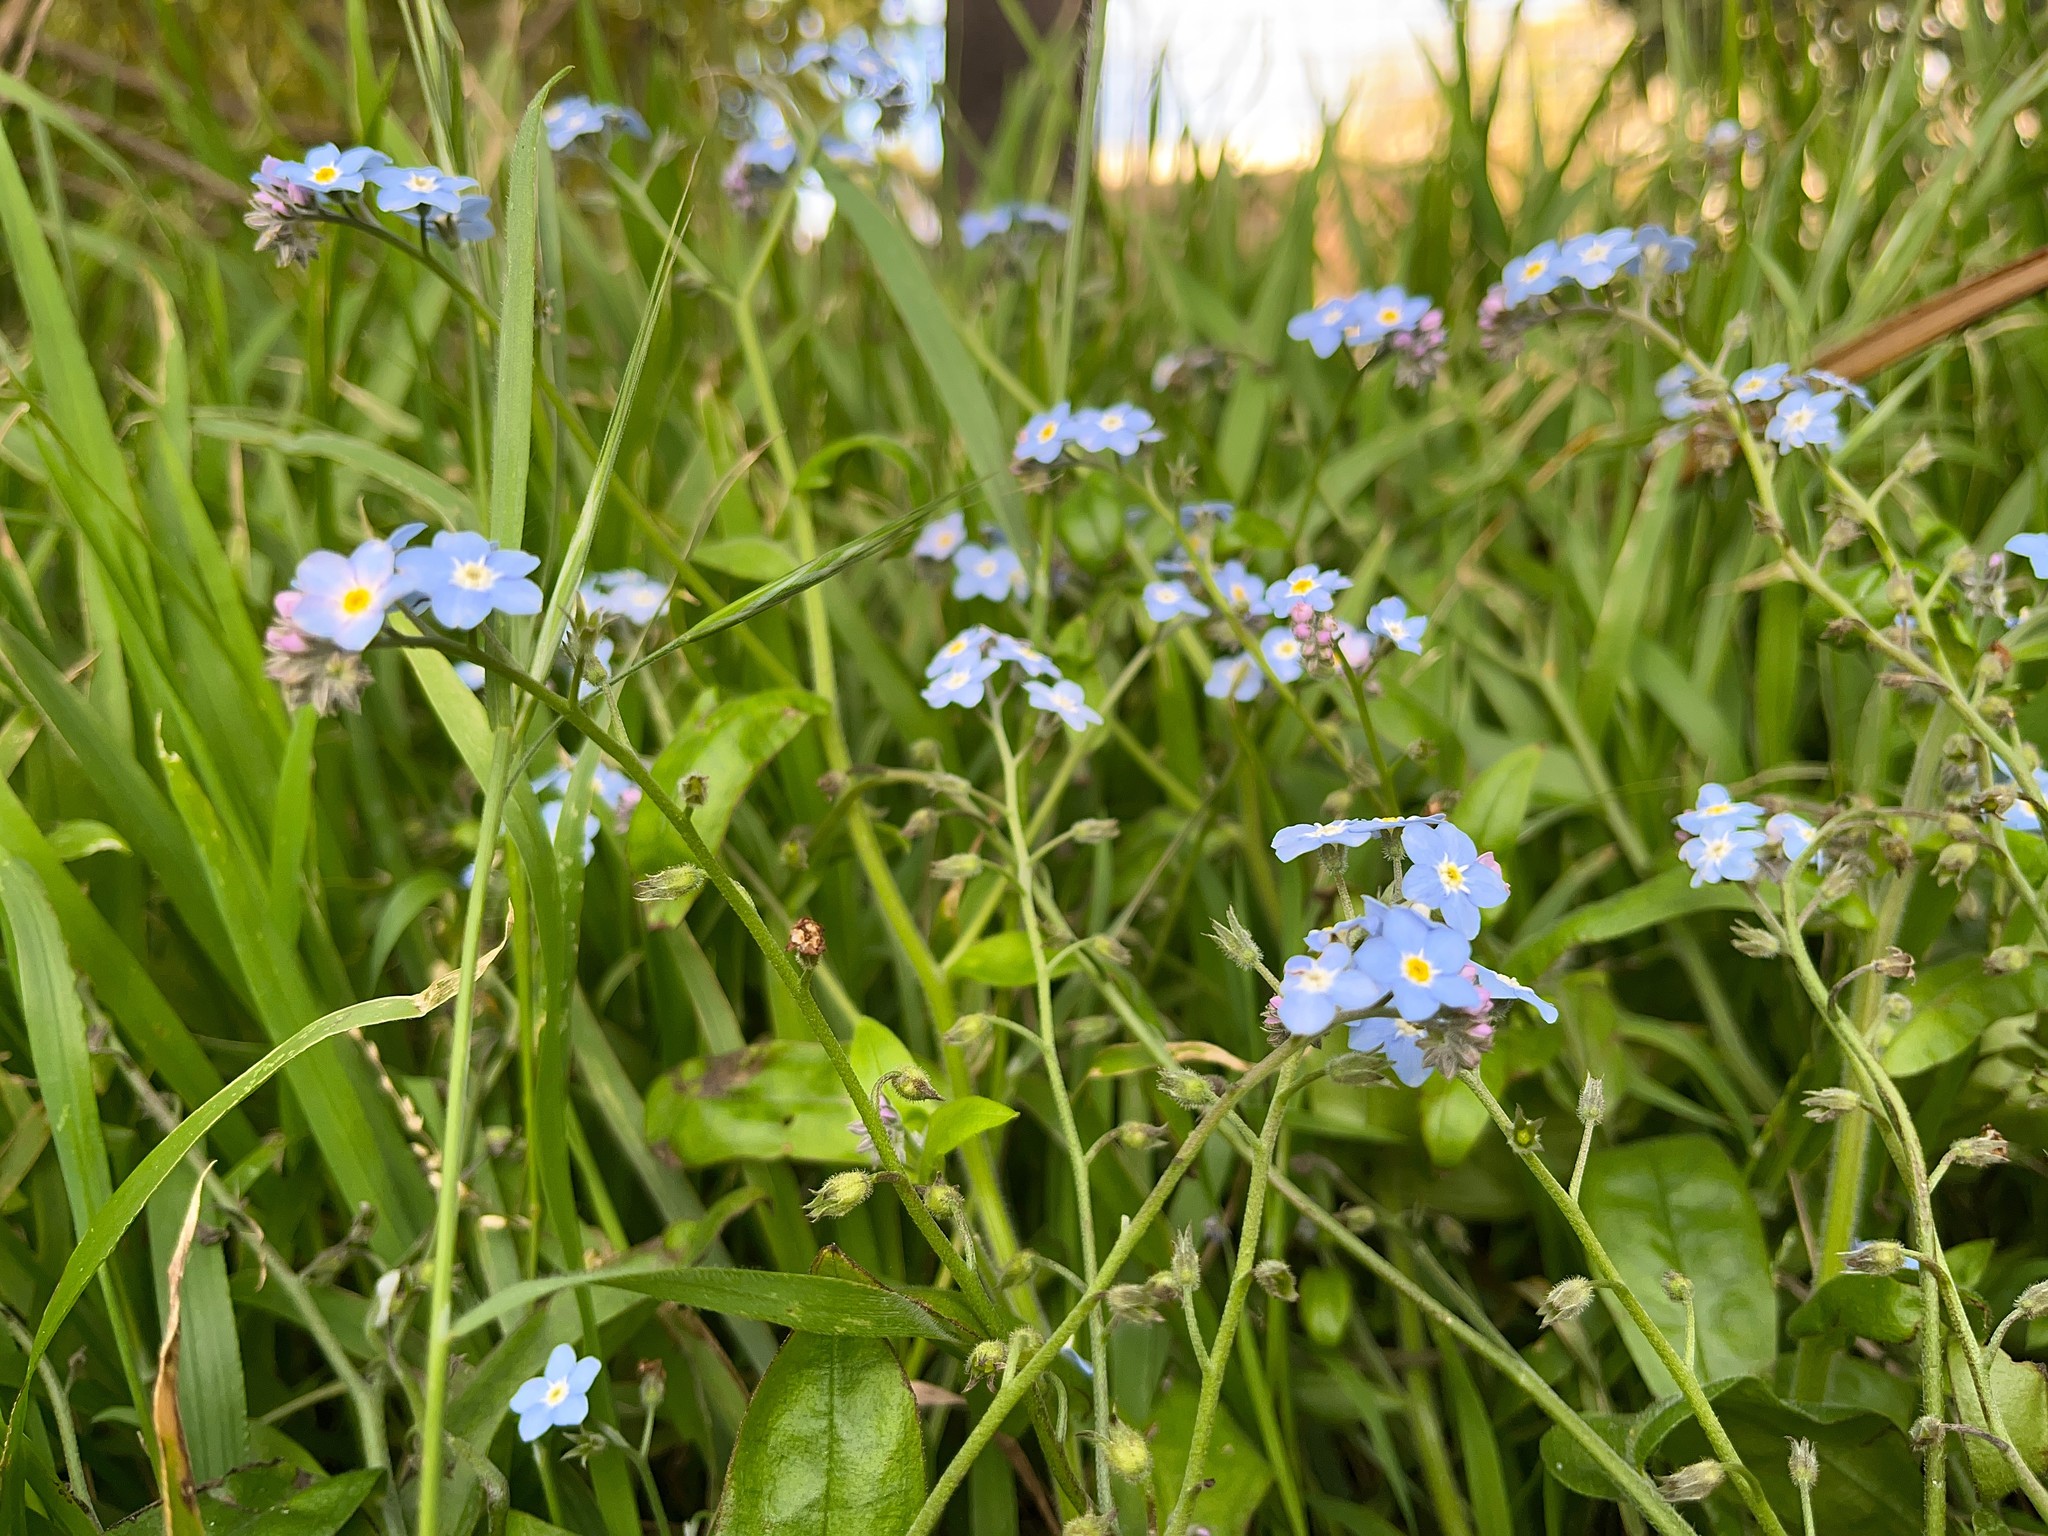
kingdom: Plantae
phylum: Tracheophyta
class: Magnoliopsida
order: Boraginales
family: Boraginaceae
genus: Myosotis
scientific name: Myosotis sylvatica
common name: Wood forget-me-not
